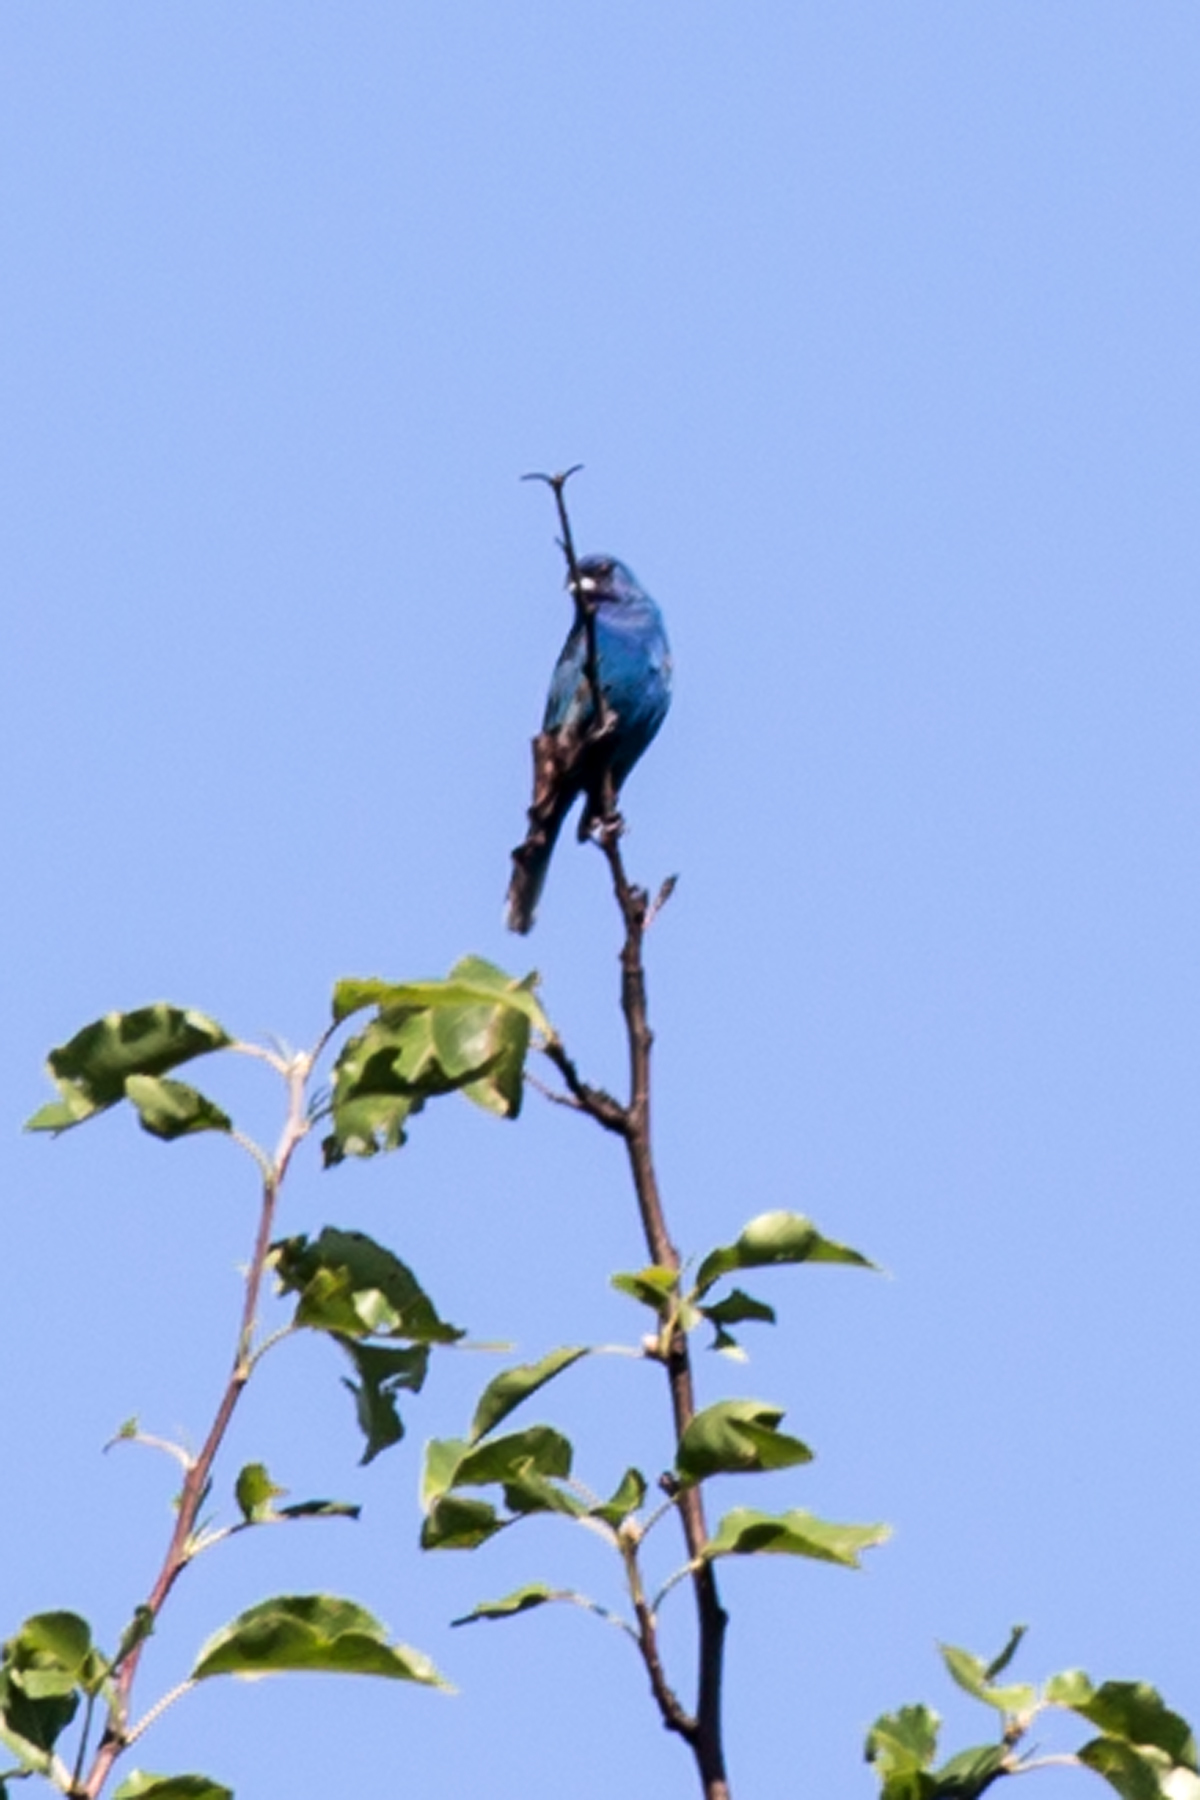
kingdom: Animalia
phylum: Chordata
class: Aves
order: Passeriformes
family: Cardinalidae
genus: Passerina
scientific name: Passerina cyanea
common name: Indigo bunting
